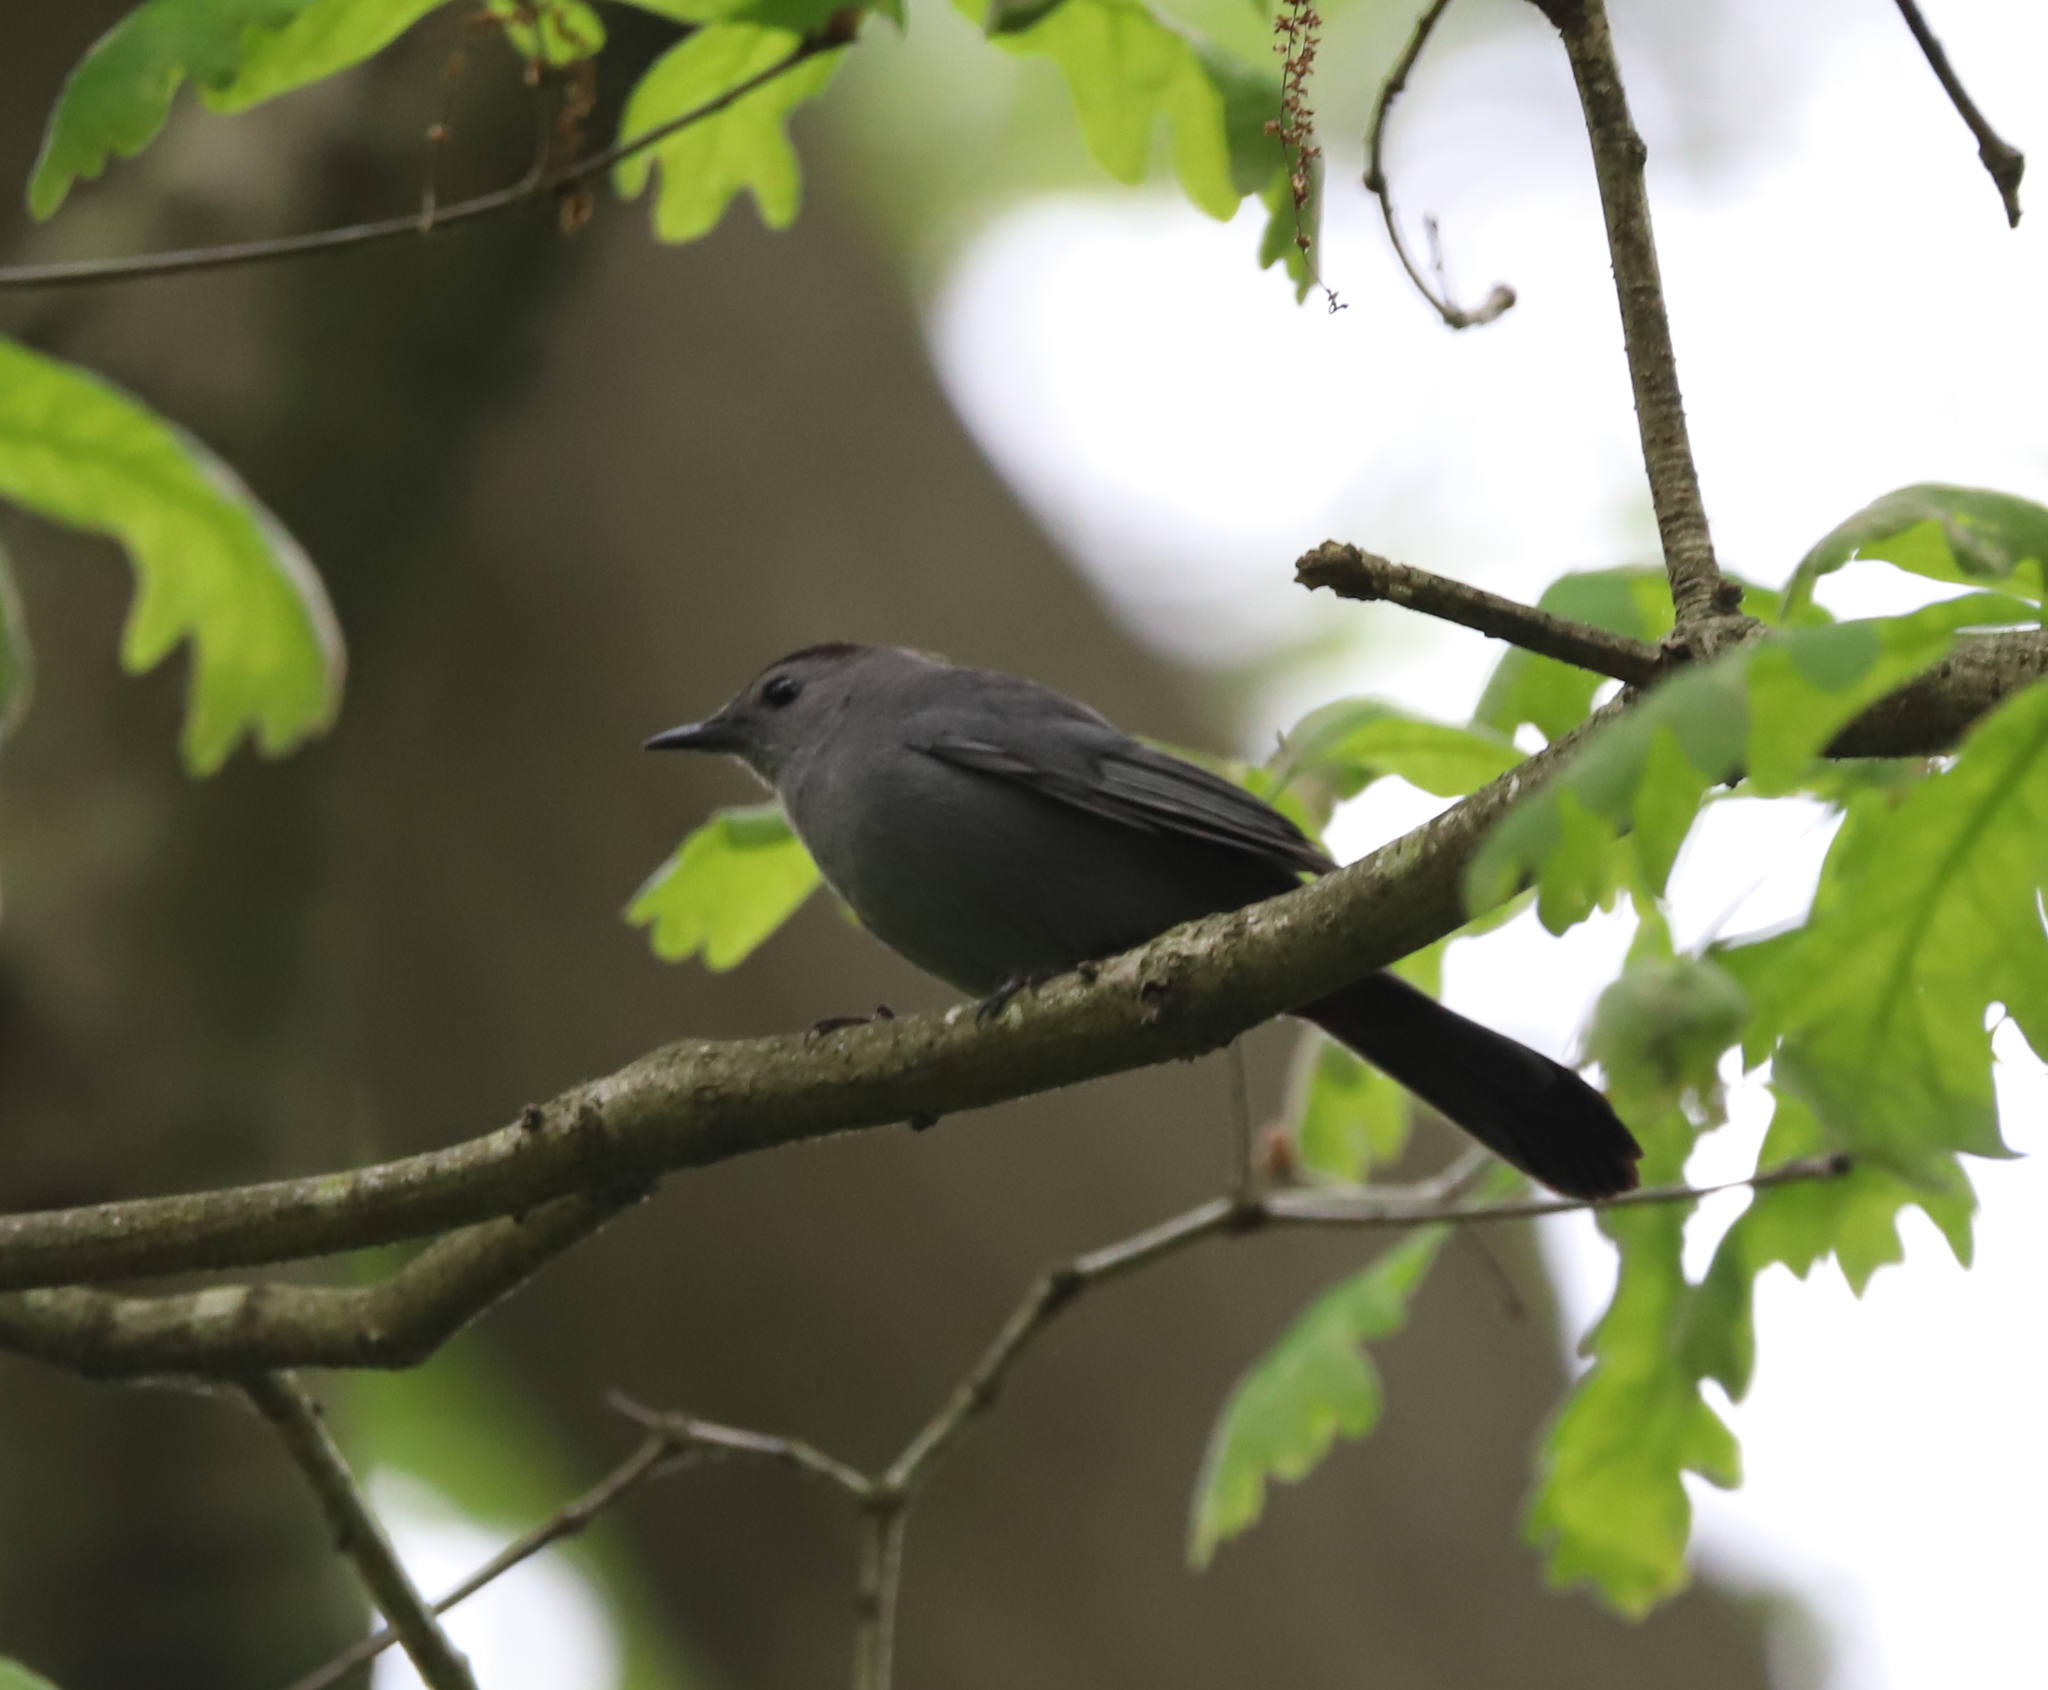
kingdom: Animalia
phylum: Chordata
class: Aves
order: Passeriformes
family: Mimidae
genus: Dumetella
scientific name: Dumetella carolinensis
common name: Gray catbird
